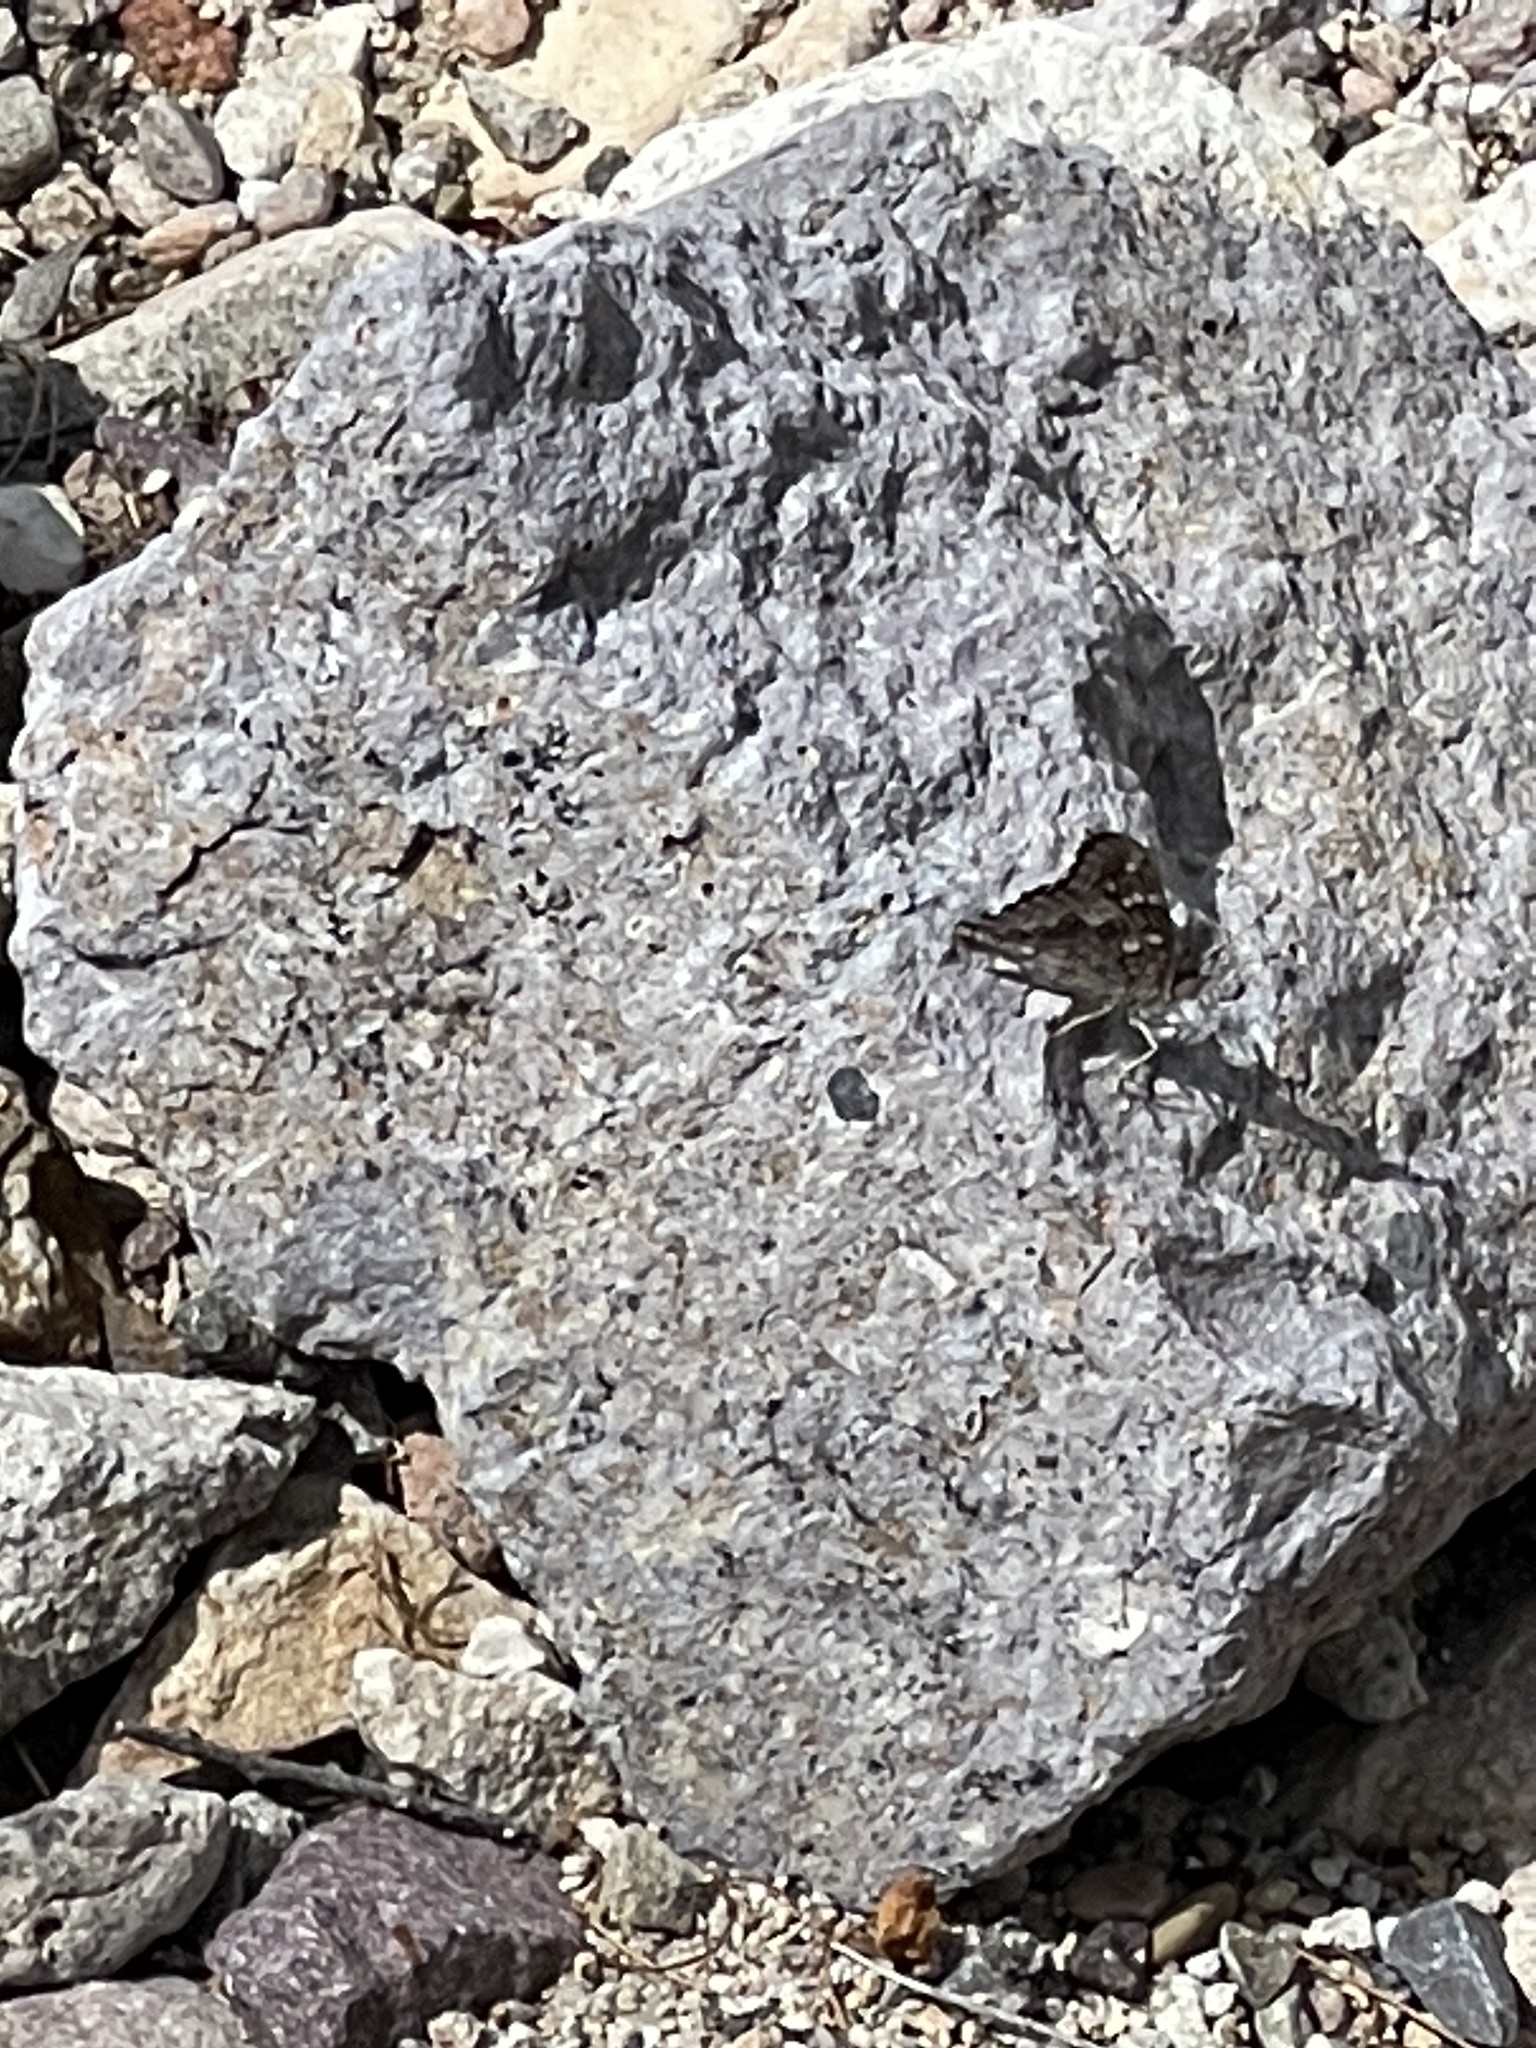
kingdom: Animalia
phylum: Arthropoda
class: Insecta
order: Lepidoptera
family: Nymphalidae
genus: Asterocampa
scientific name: Asterocampa leilia
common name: Empress leilia
